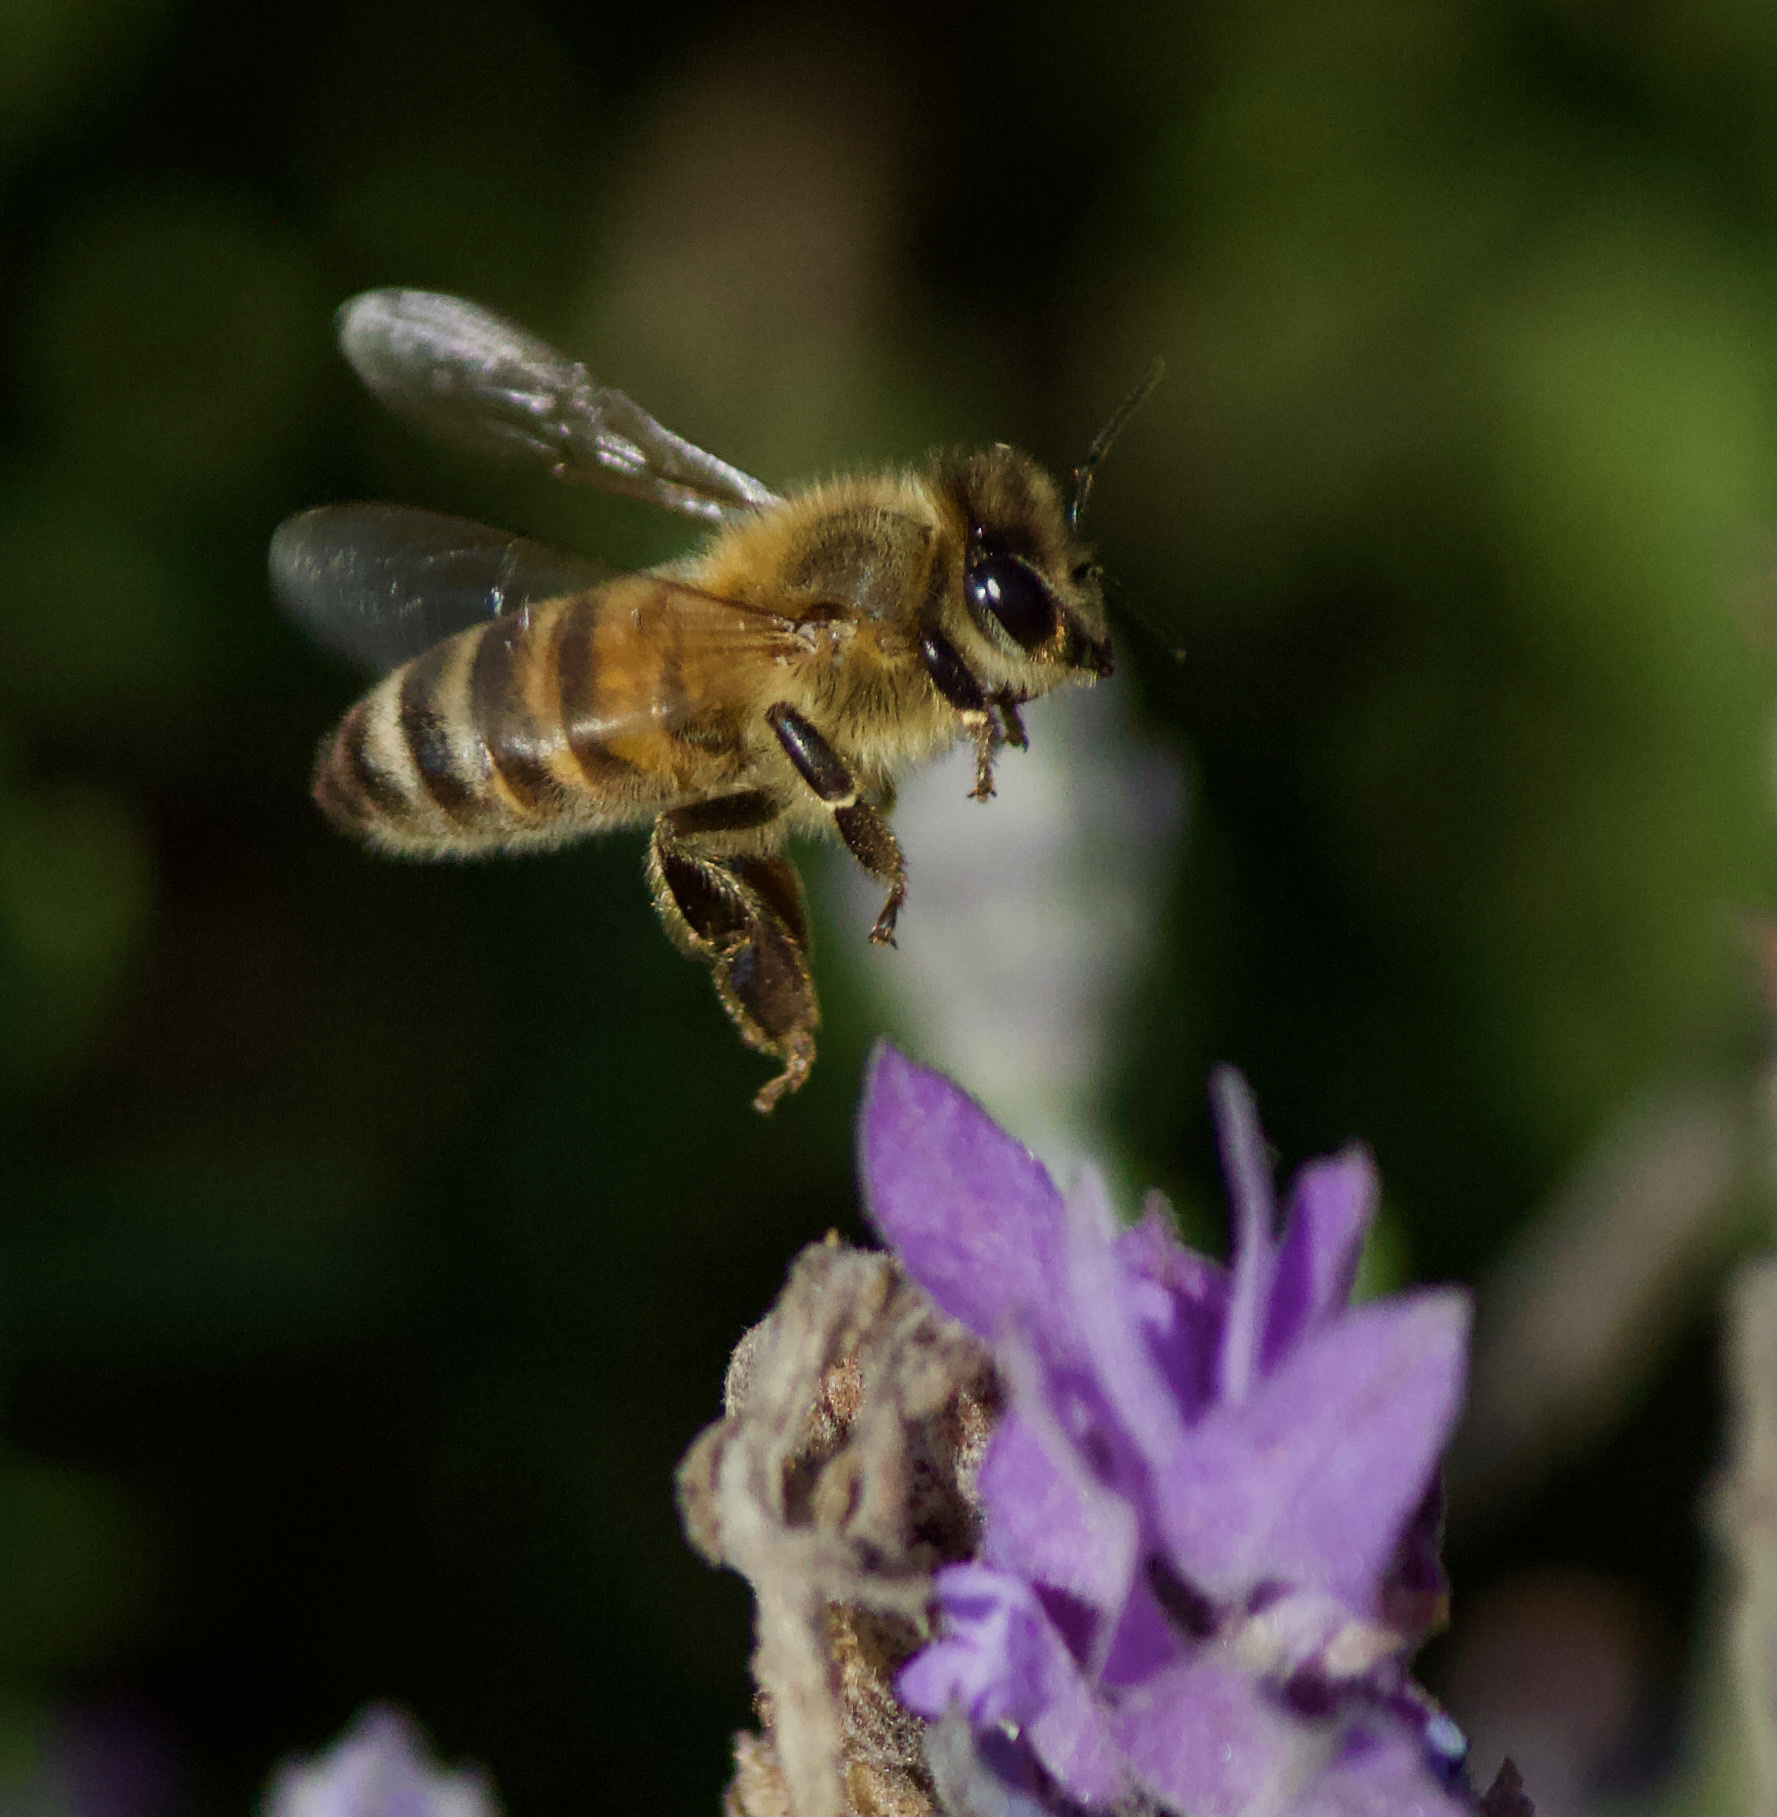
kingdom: Animalia
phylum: Arthropoda
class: Insecta
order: Hymenoptera
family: Apidae
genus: Apis
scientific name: Apis mellifera
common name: Honey bee
